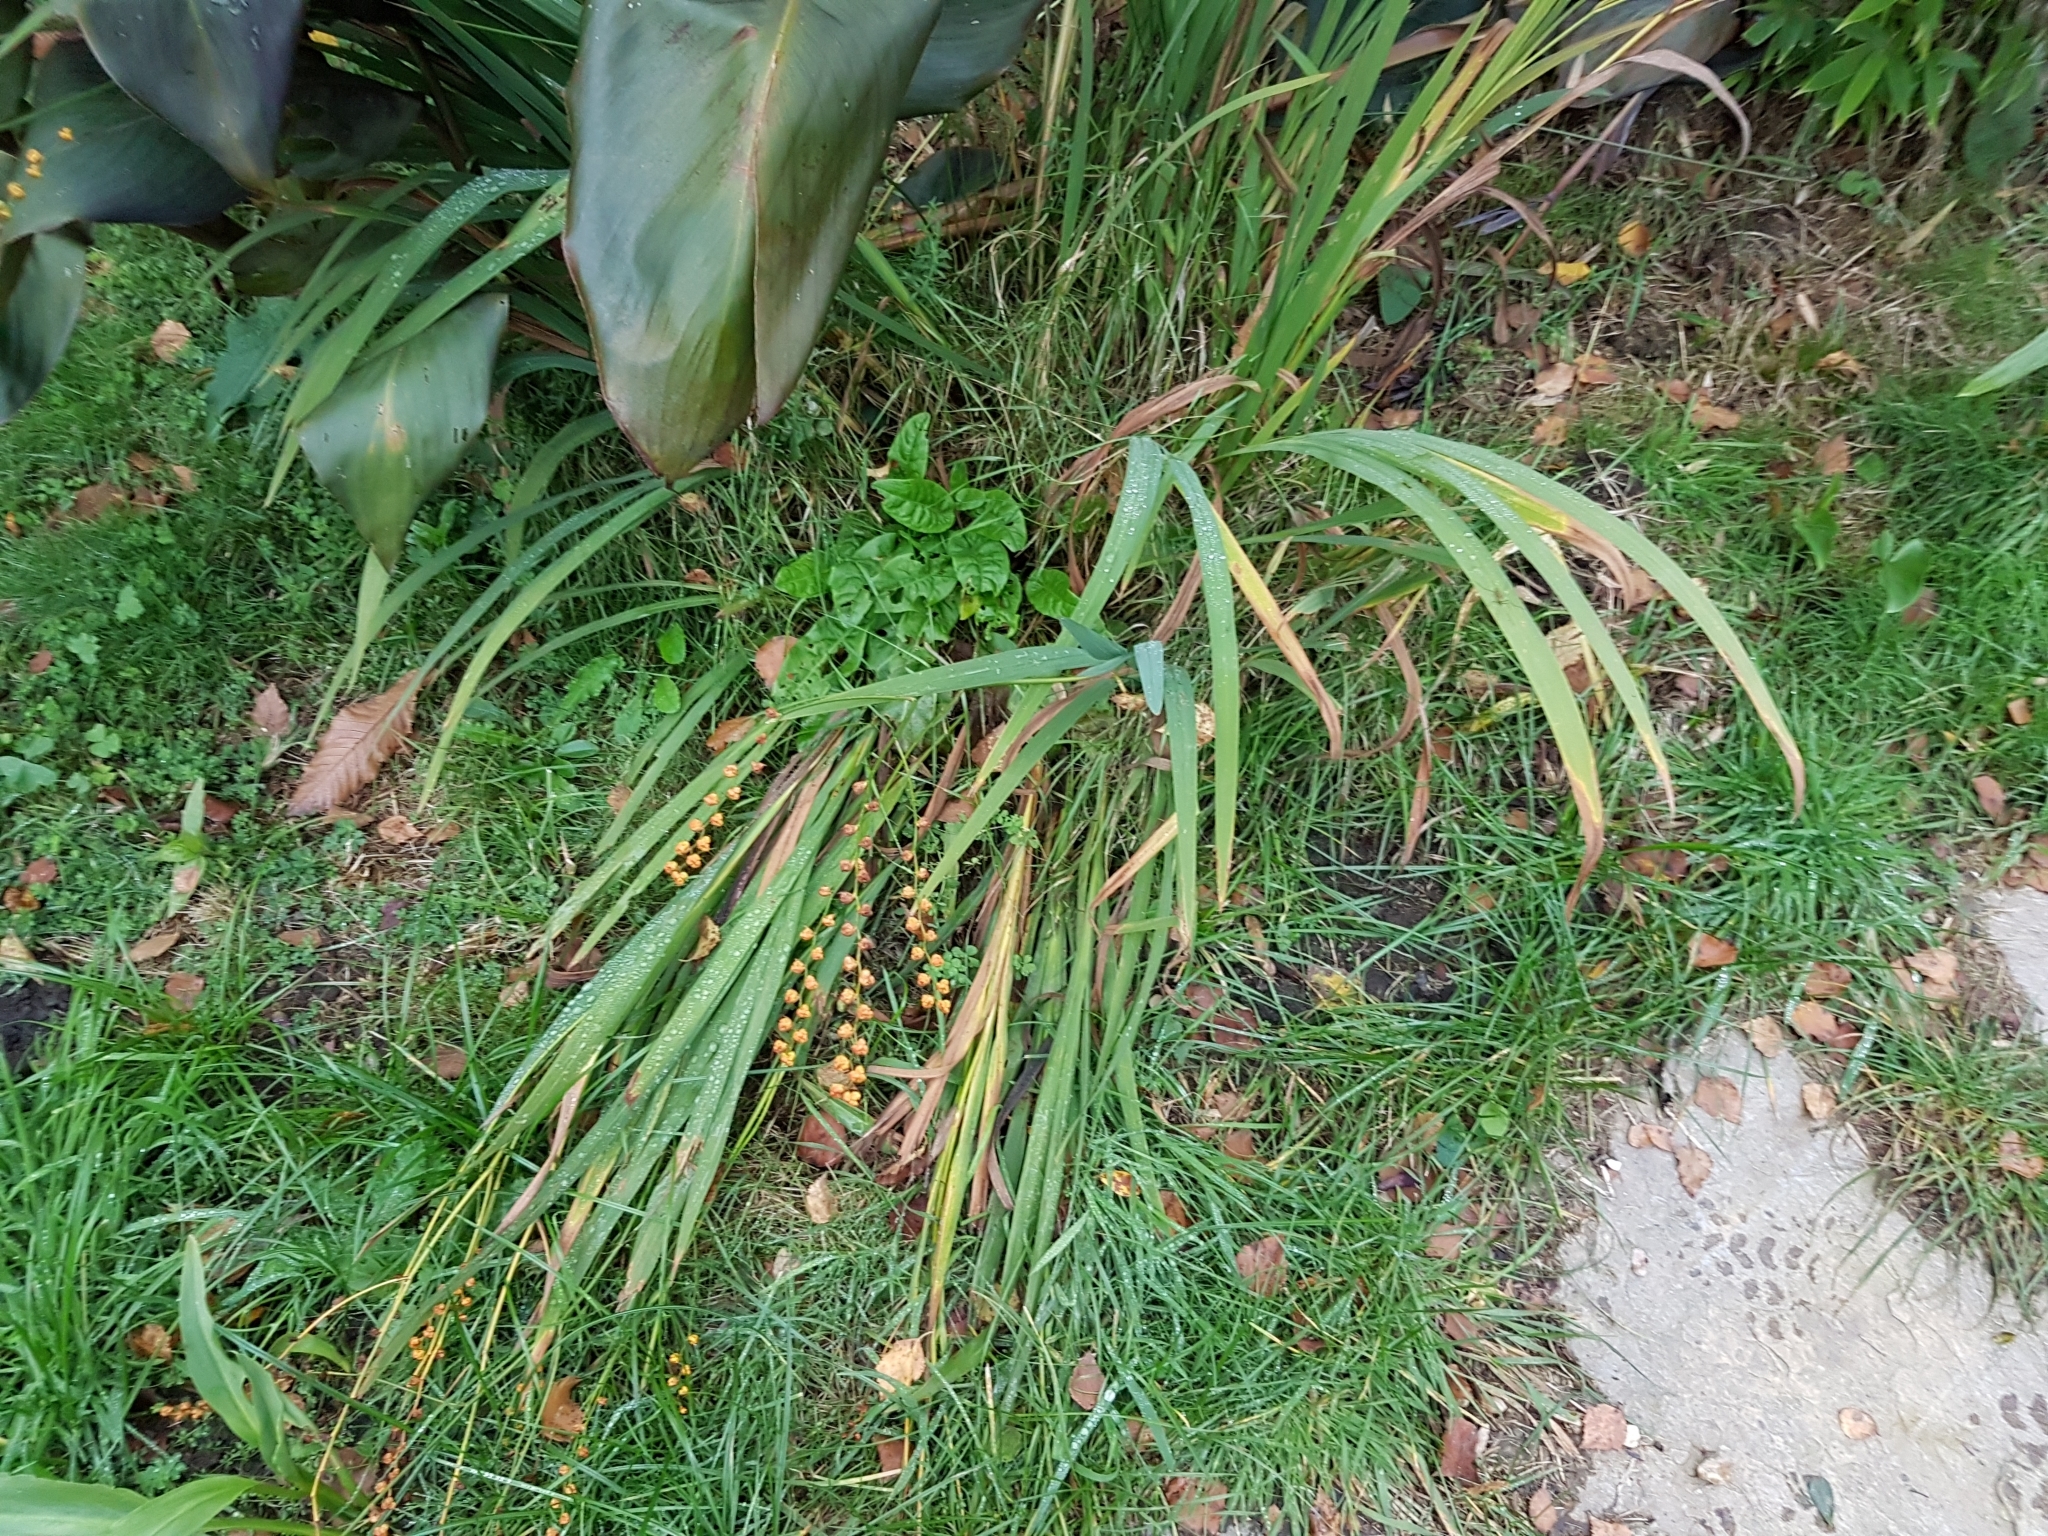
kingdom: Plantae
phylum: Tracheophyta
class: Liliopsida
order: Asparagales
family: Iridaceae
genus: Crocosmia
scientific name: Crocosmia crocosmiiflora
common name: Montbretia
